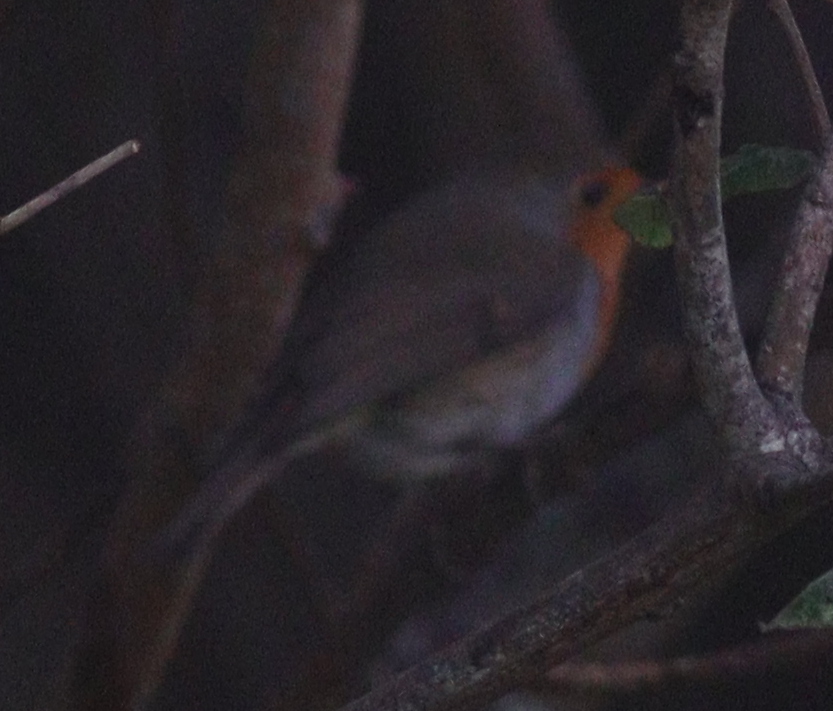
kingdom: Animalia
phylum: Chordata
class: Aves
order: Passeriformes
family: Muscicapidae
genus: Erithacus
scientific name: Erithacus rubecula
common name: European robin
